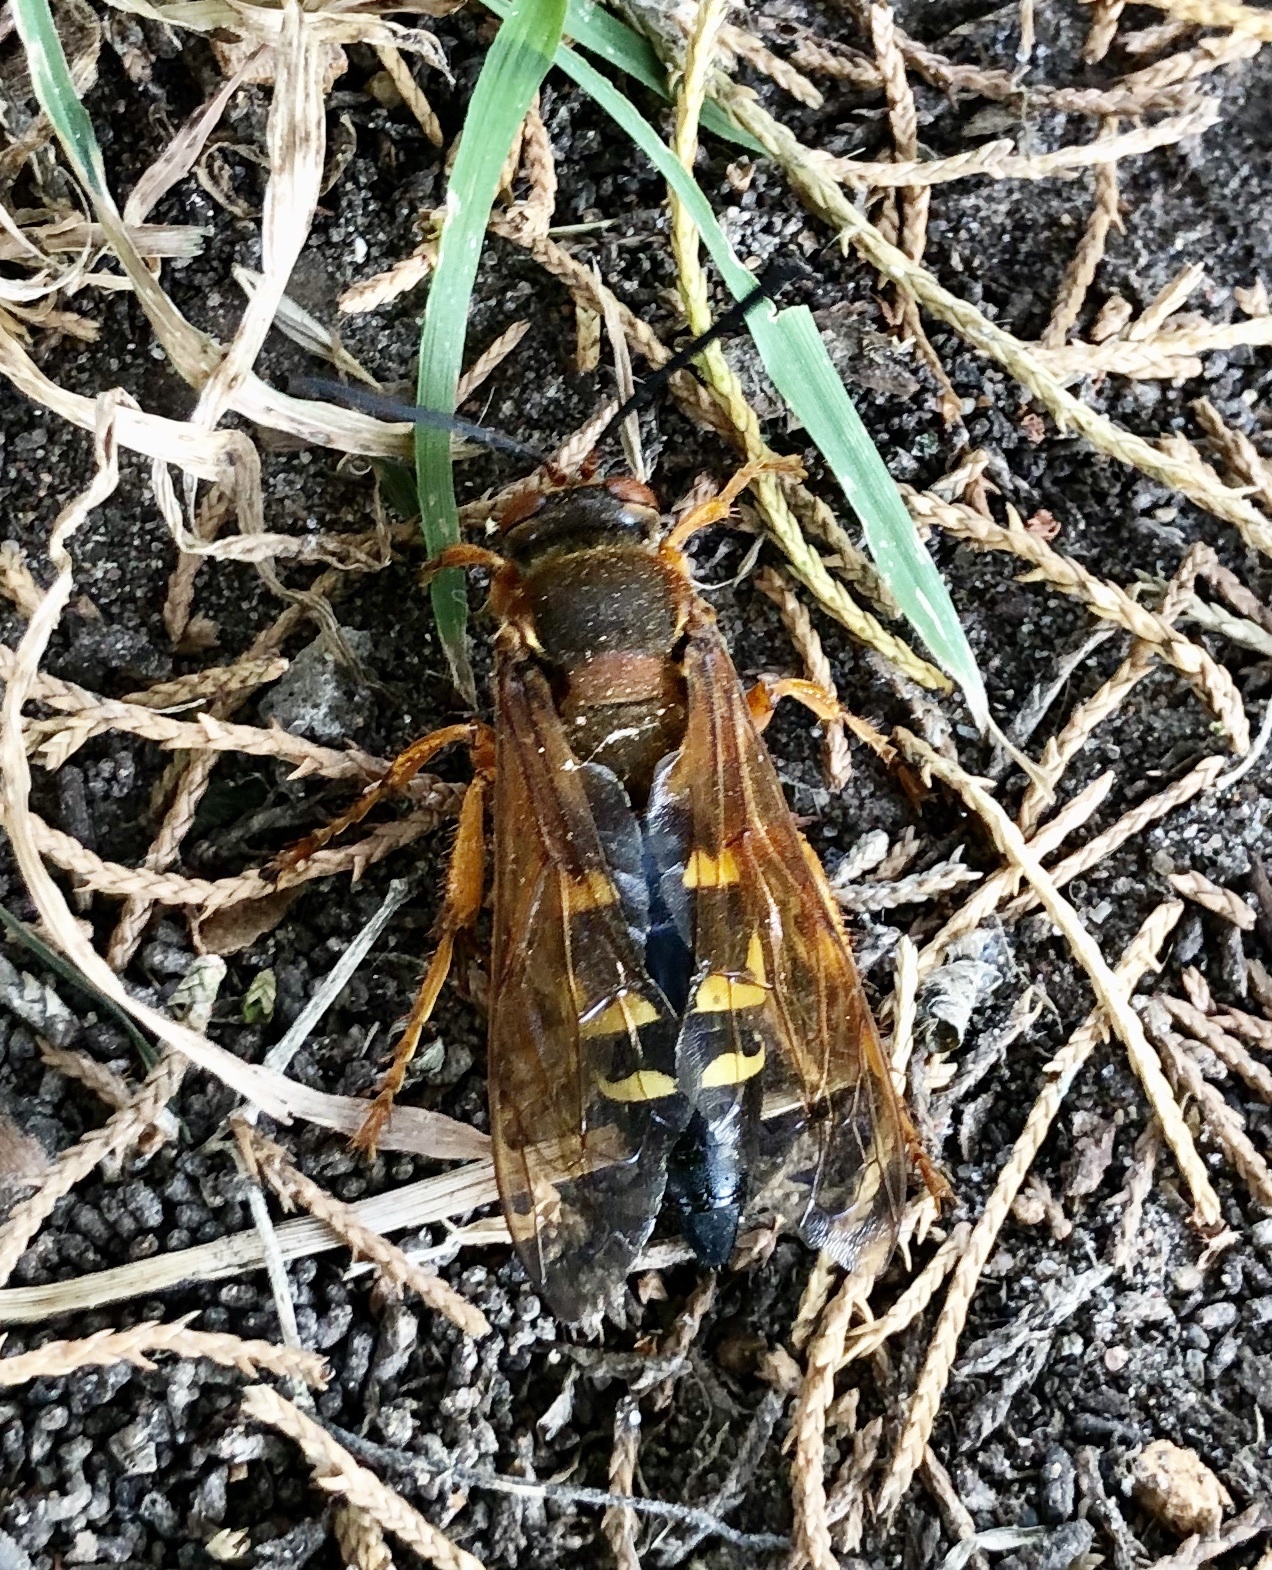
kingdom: Animalia
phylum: Arthropoda
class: Insecta
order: Hymenoptera
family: Crabronidae
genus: Sphecius
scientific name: Sphecius speciosus
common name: Cicada killer
